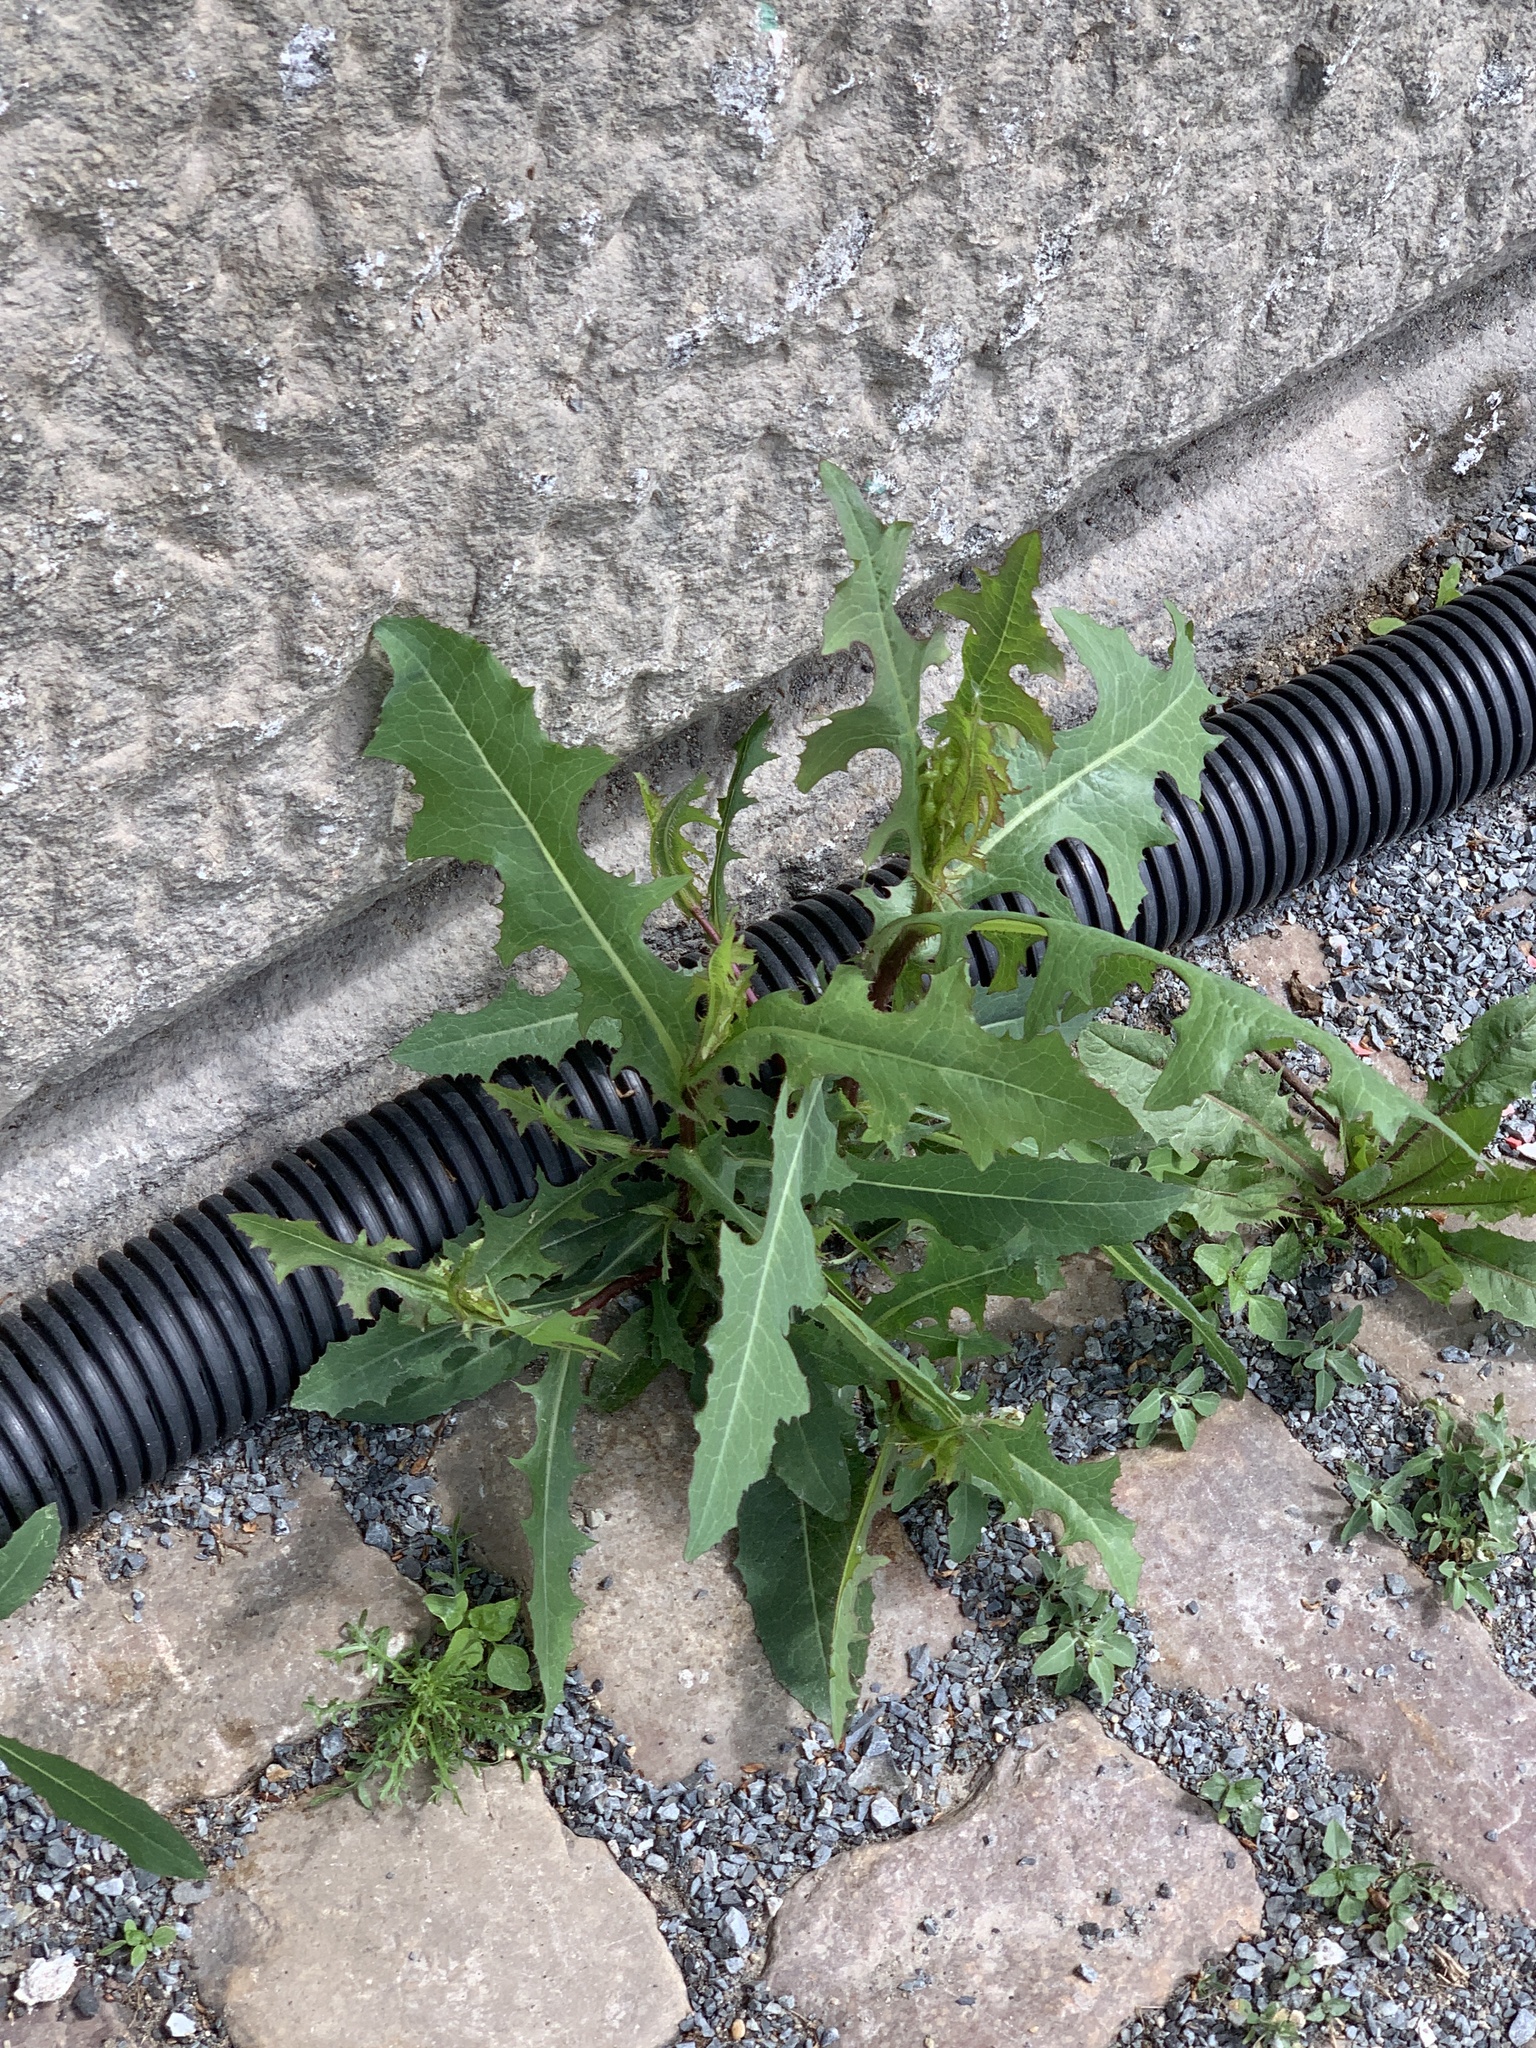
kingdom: Plantae
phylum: Tracheophyta
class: Magnoliopsida
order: Asterales
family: Asteraceae
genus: Lactuca
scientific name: Lactuca serriola
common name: Prickly lettuce
